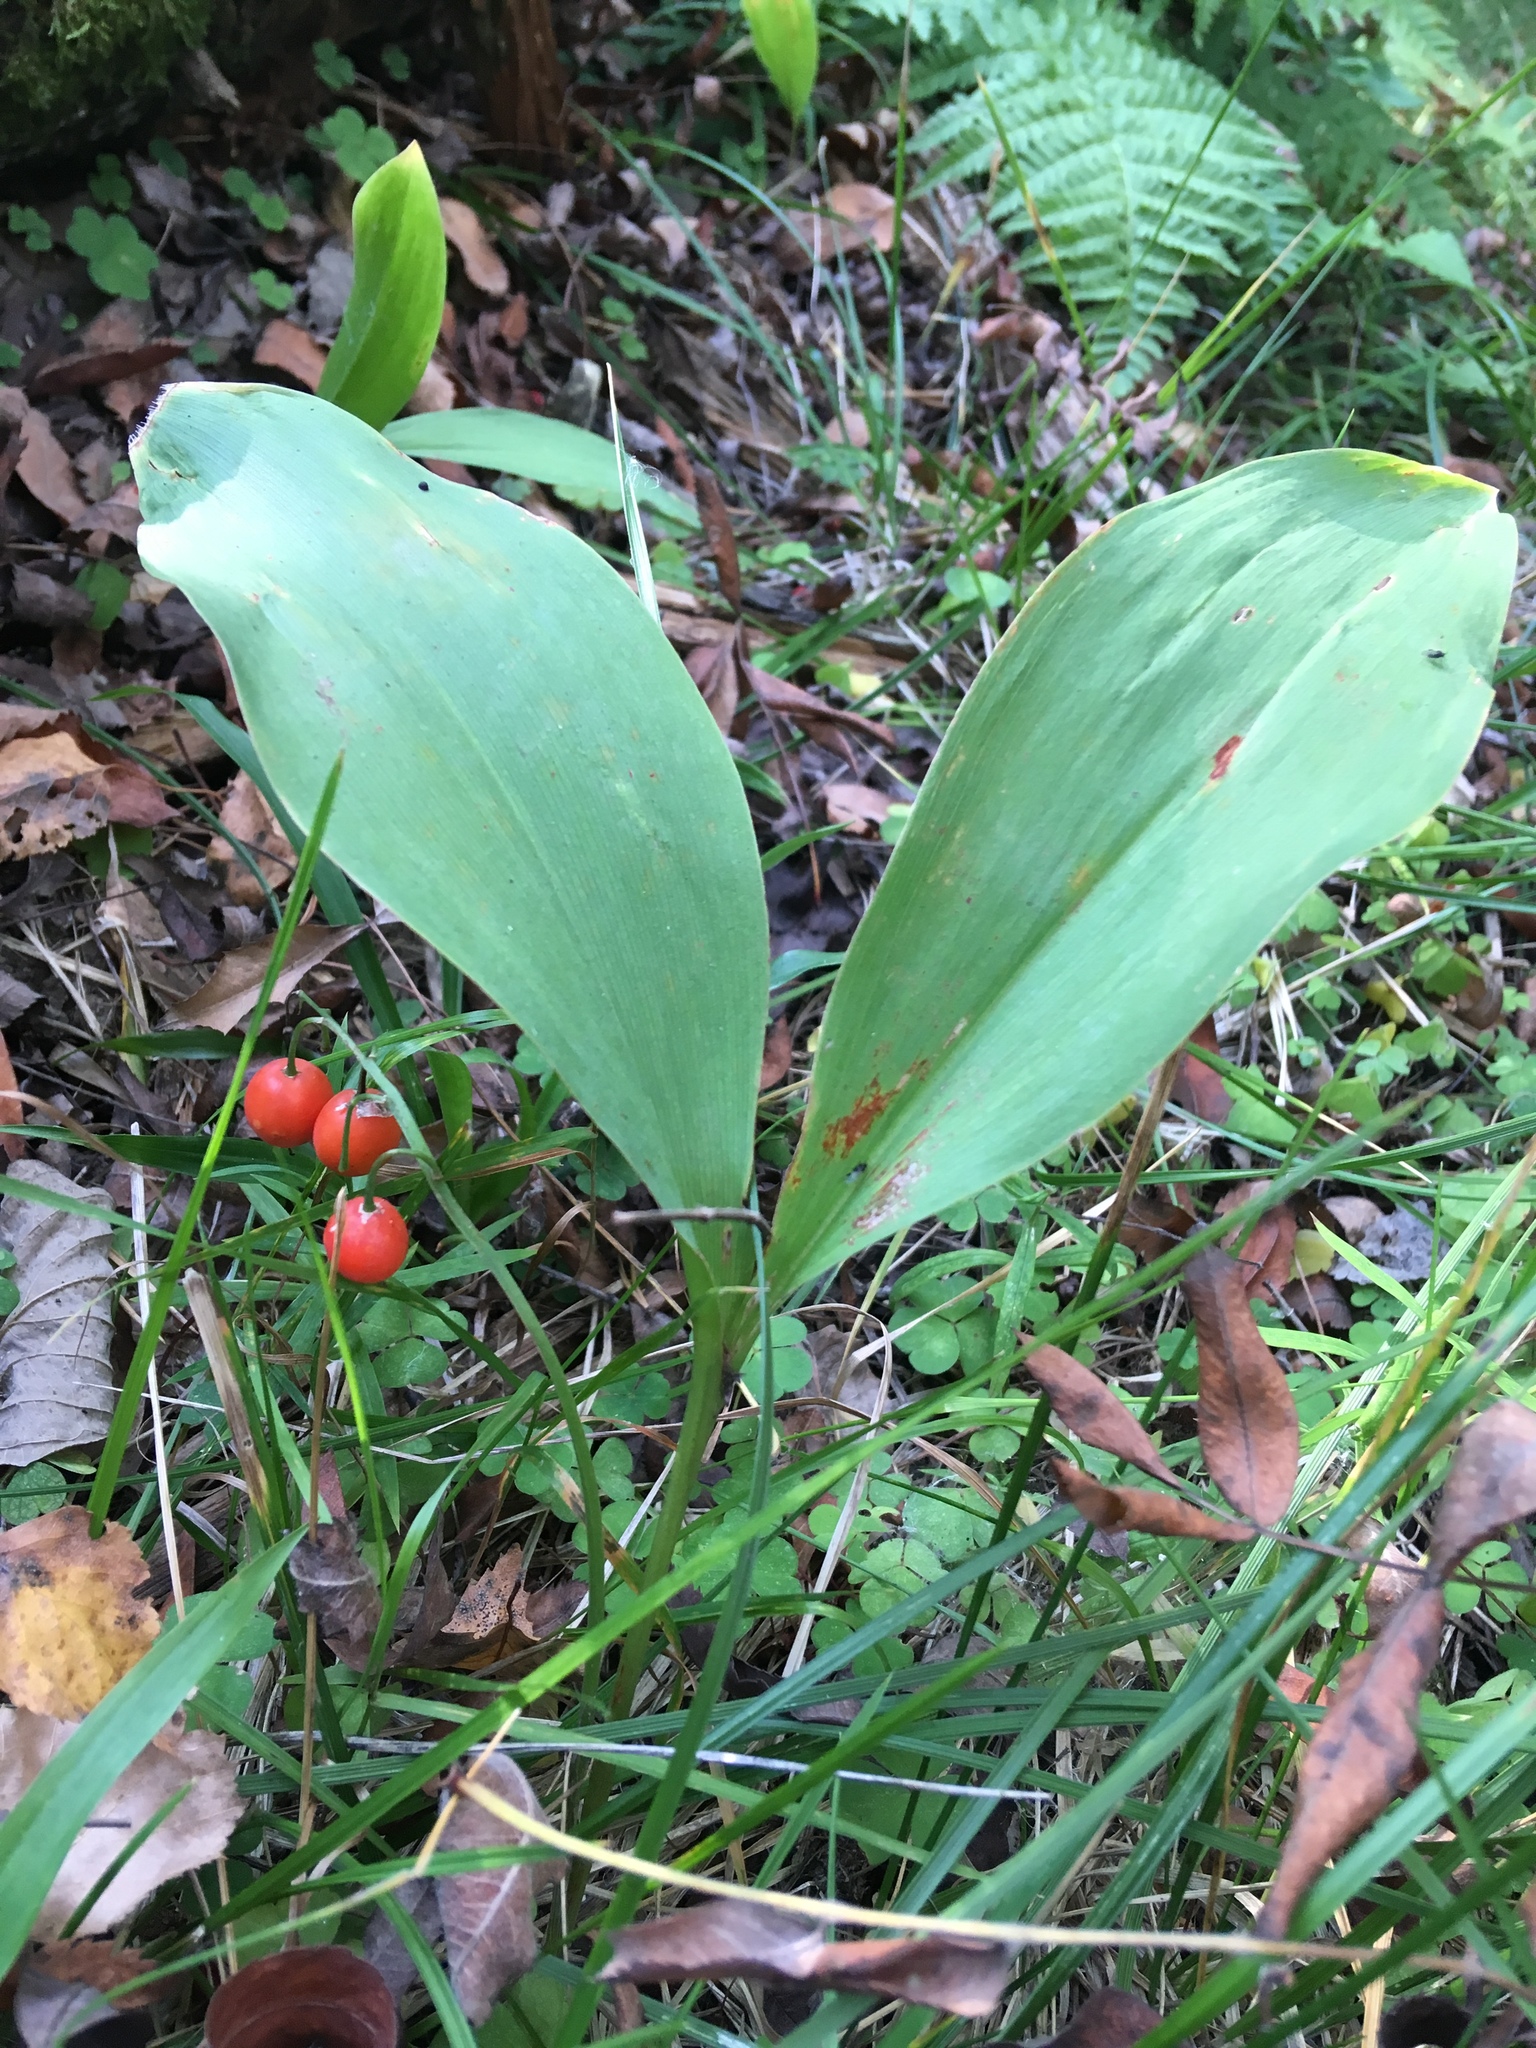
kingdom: Plantae
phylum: Tracheophyta
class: Liliopsida
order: Asparagales
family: Asparagaceae
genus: Convallaria
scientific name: Convallaria majalis
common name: Lily-of-the-valley
